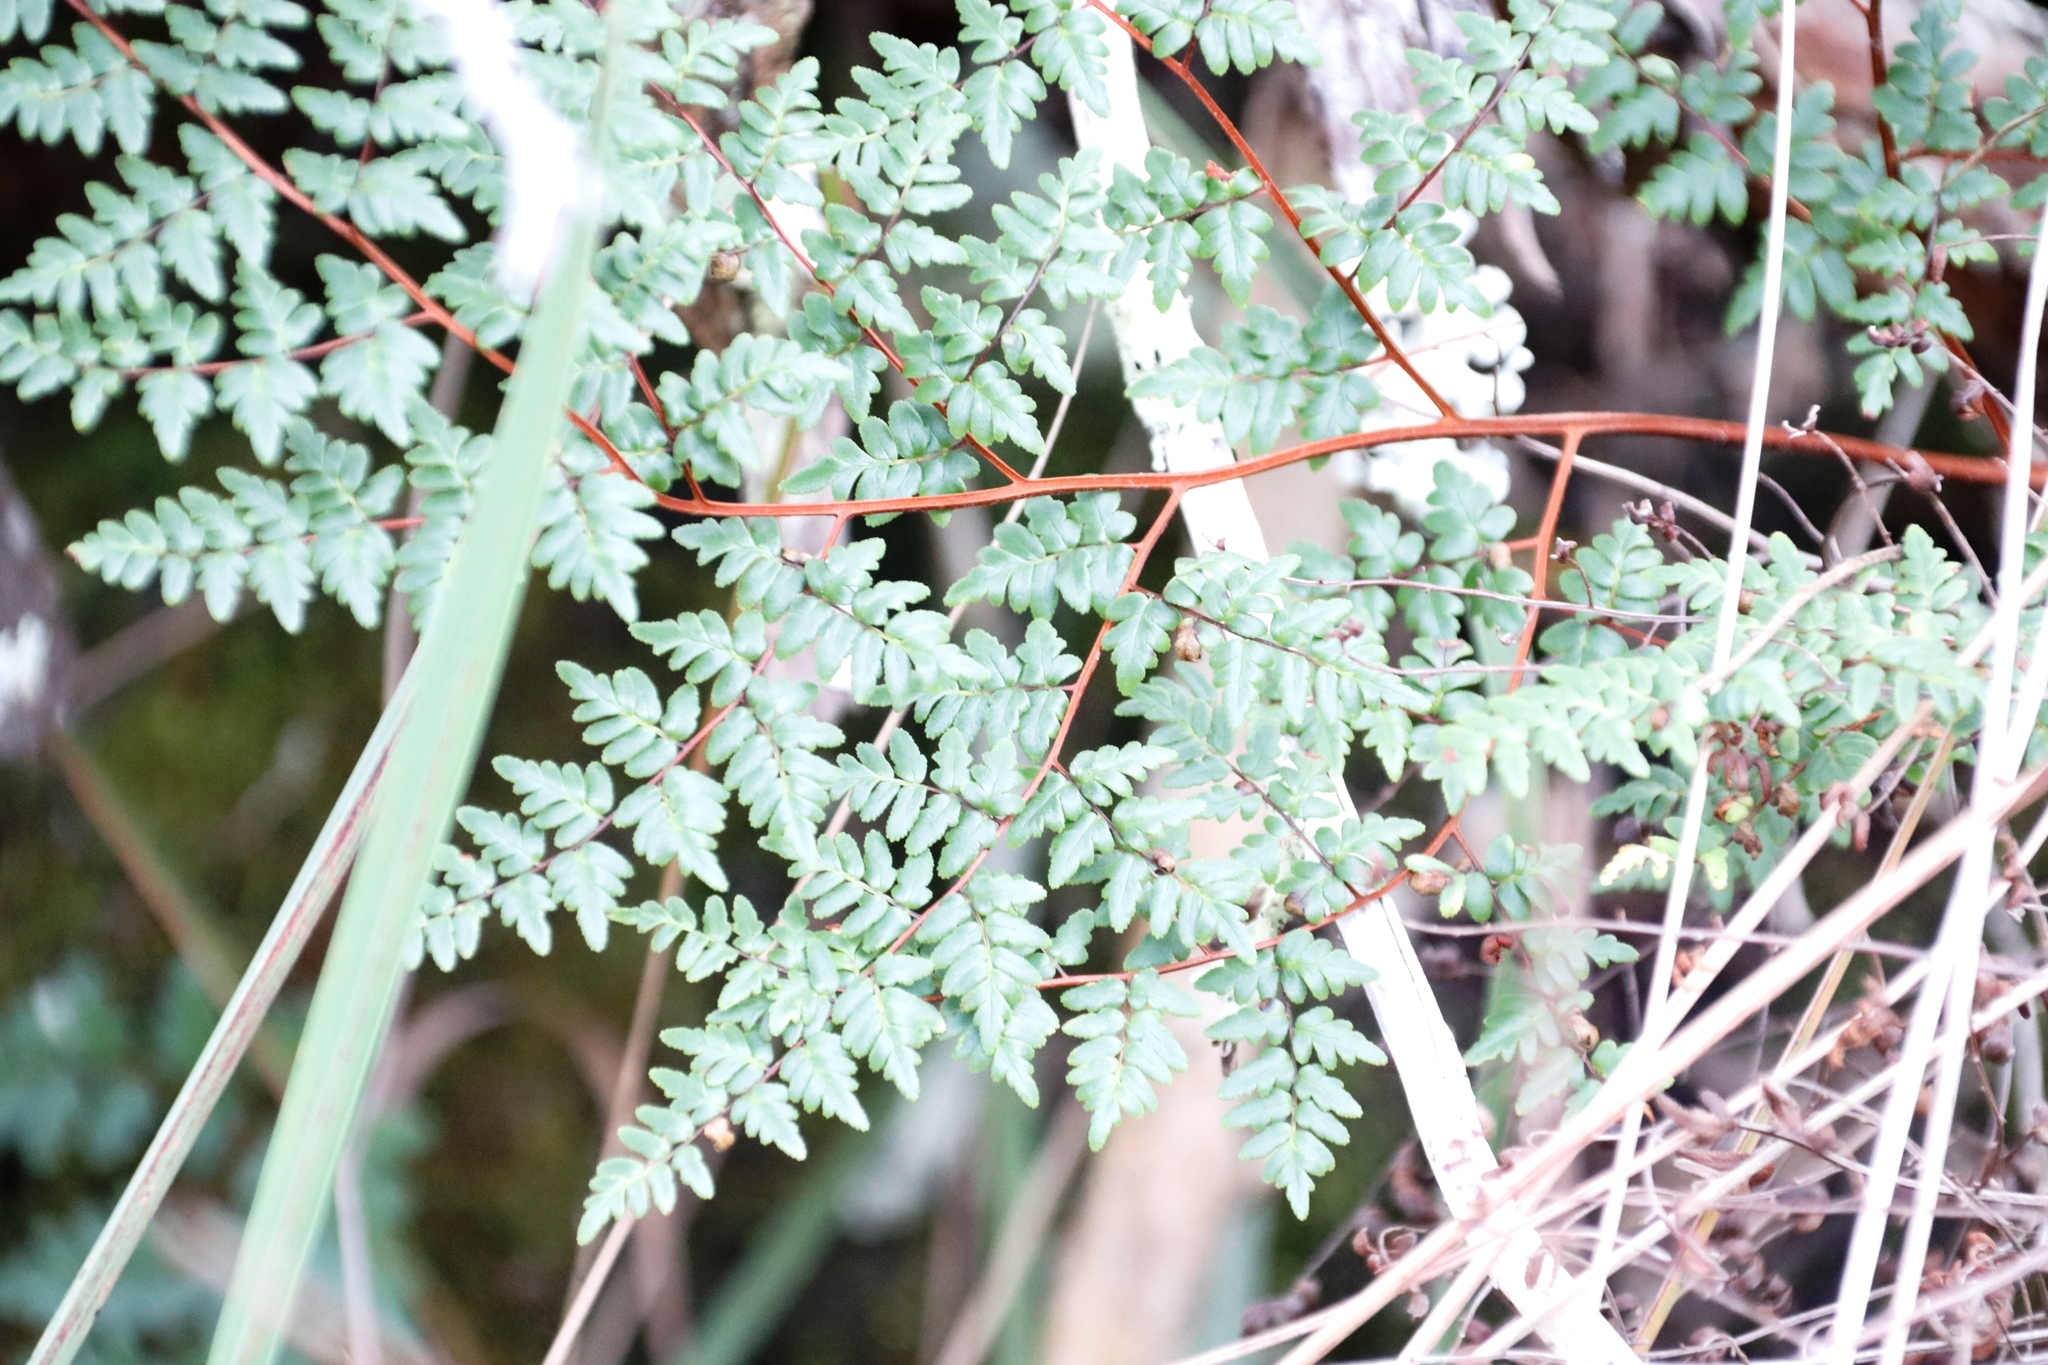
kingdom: Plantae
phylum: Tracheophyta
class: Polypodiopsida
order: Polypodiales
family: Pteridaceae
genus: Cheilanthes
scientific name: Cheilanthes quadripinnata
